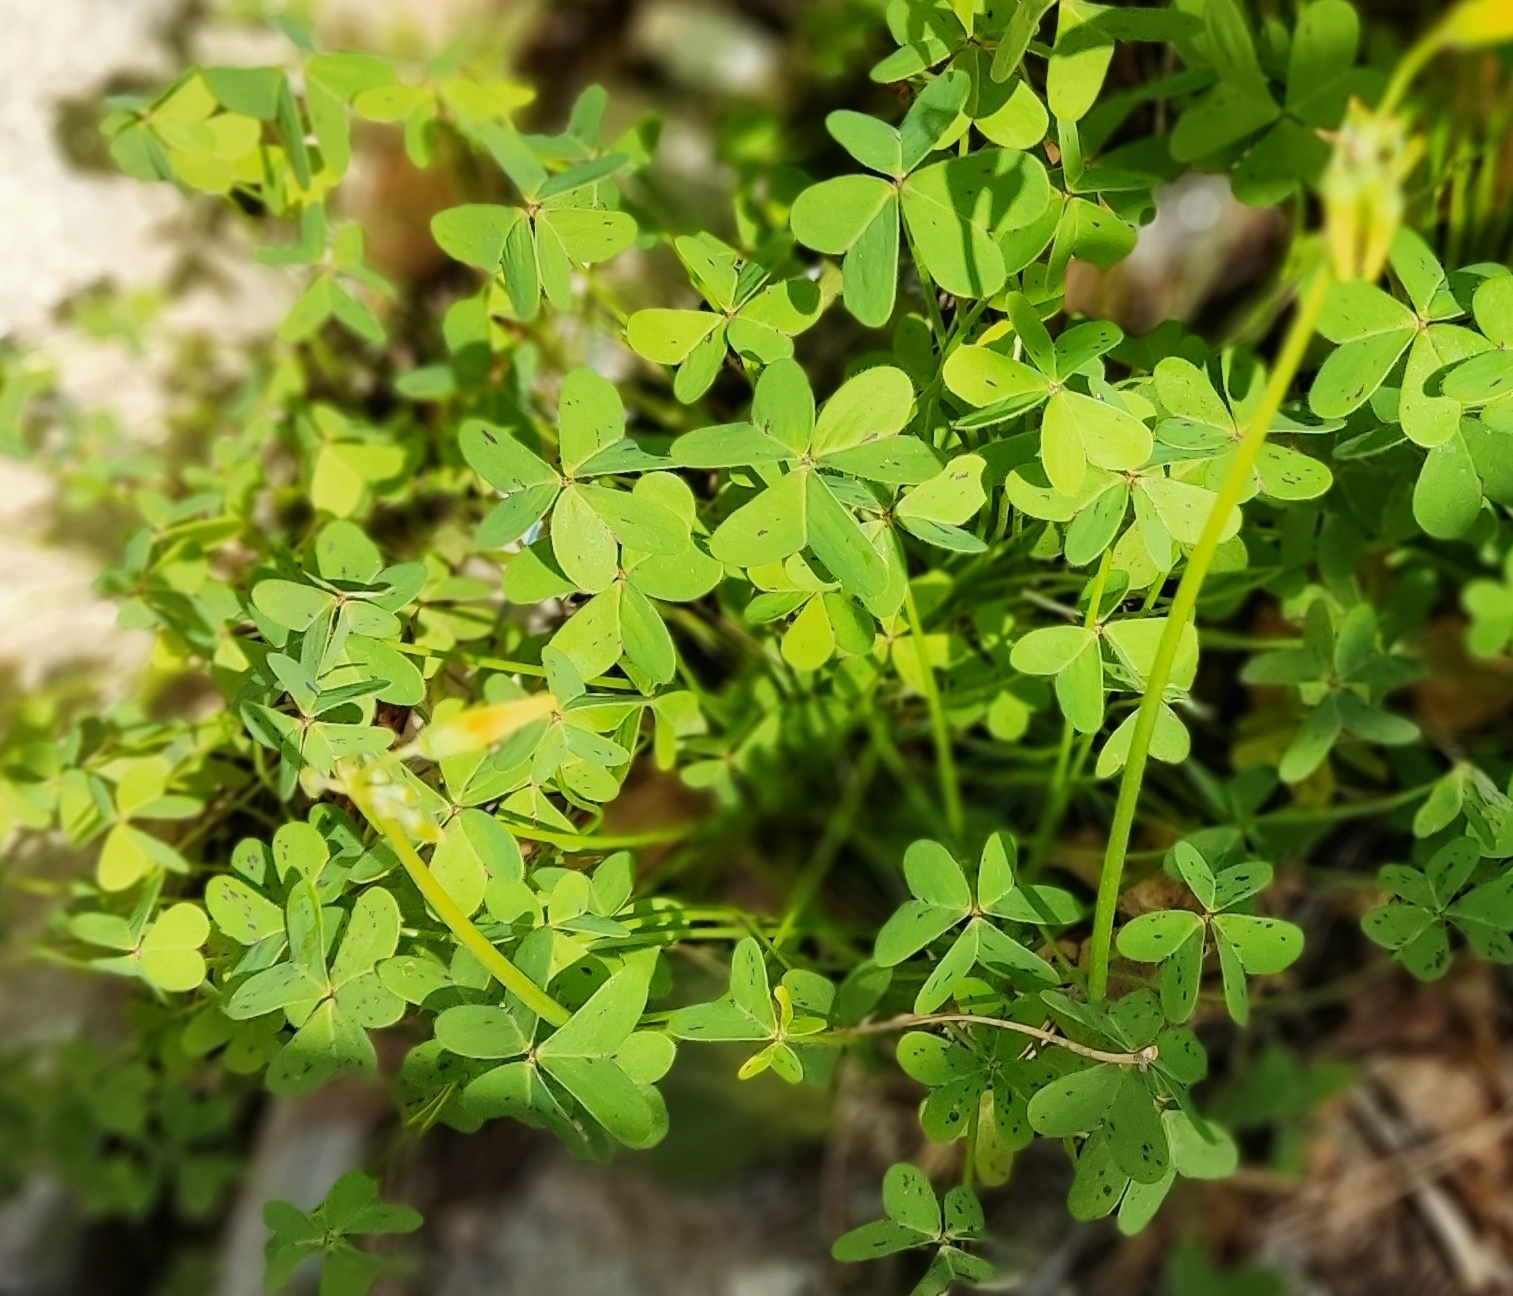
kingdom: Plantae
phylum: Tracheophyta
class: Magnoliopsida
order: Oxalidales
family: Oxalidaceae
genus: Oxalis
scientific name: Oxalis pes-caprae
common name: Bermuda-buttercup
